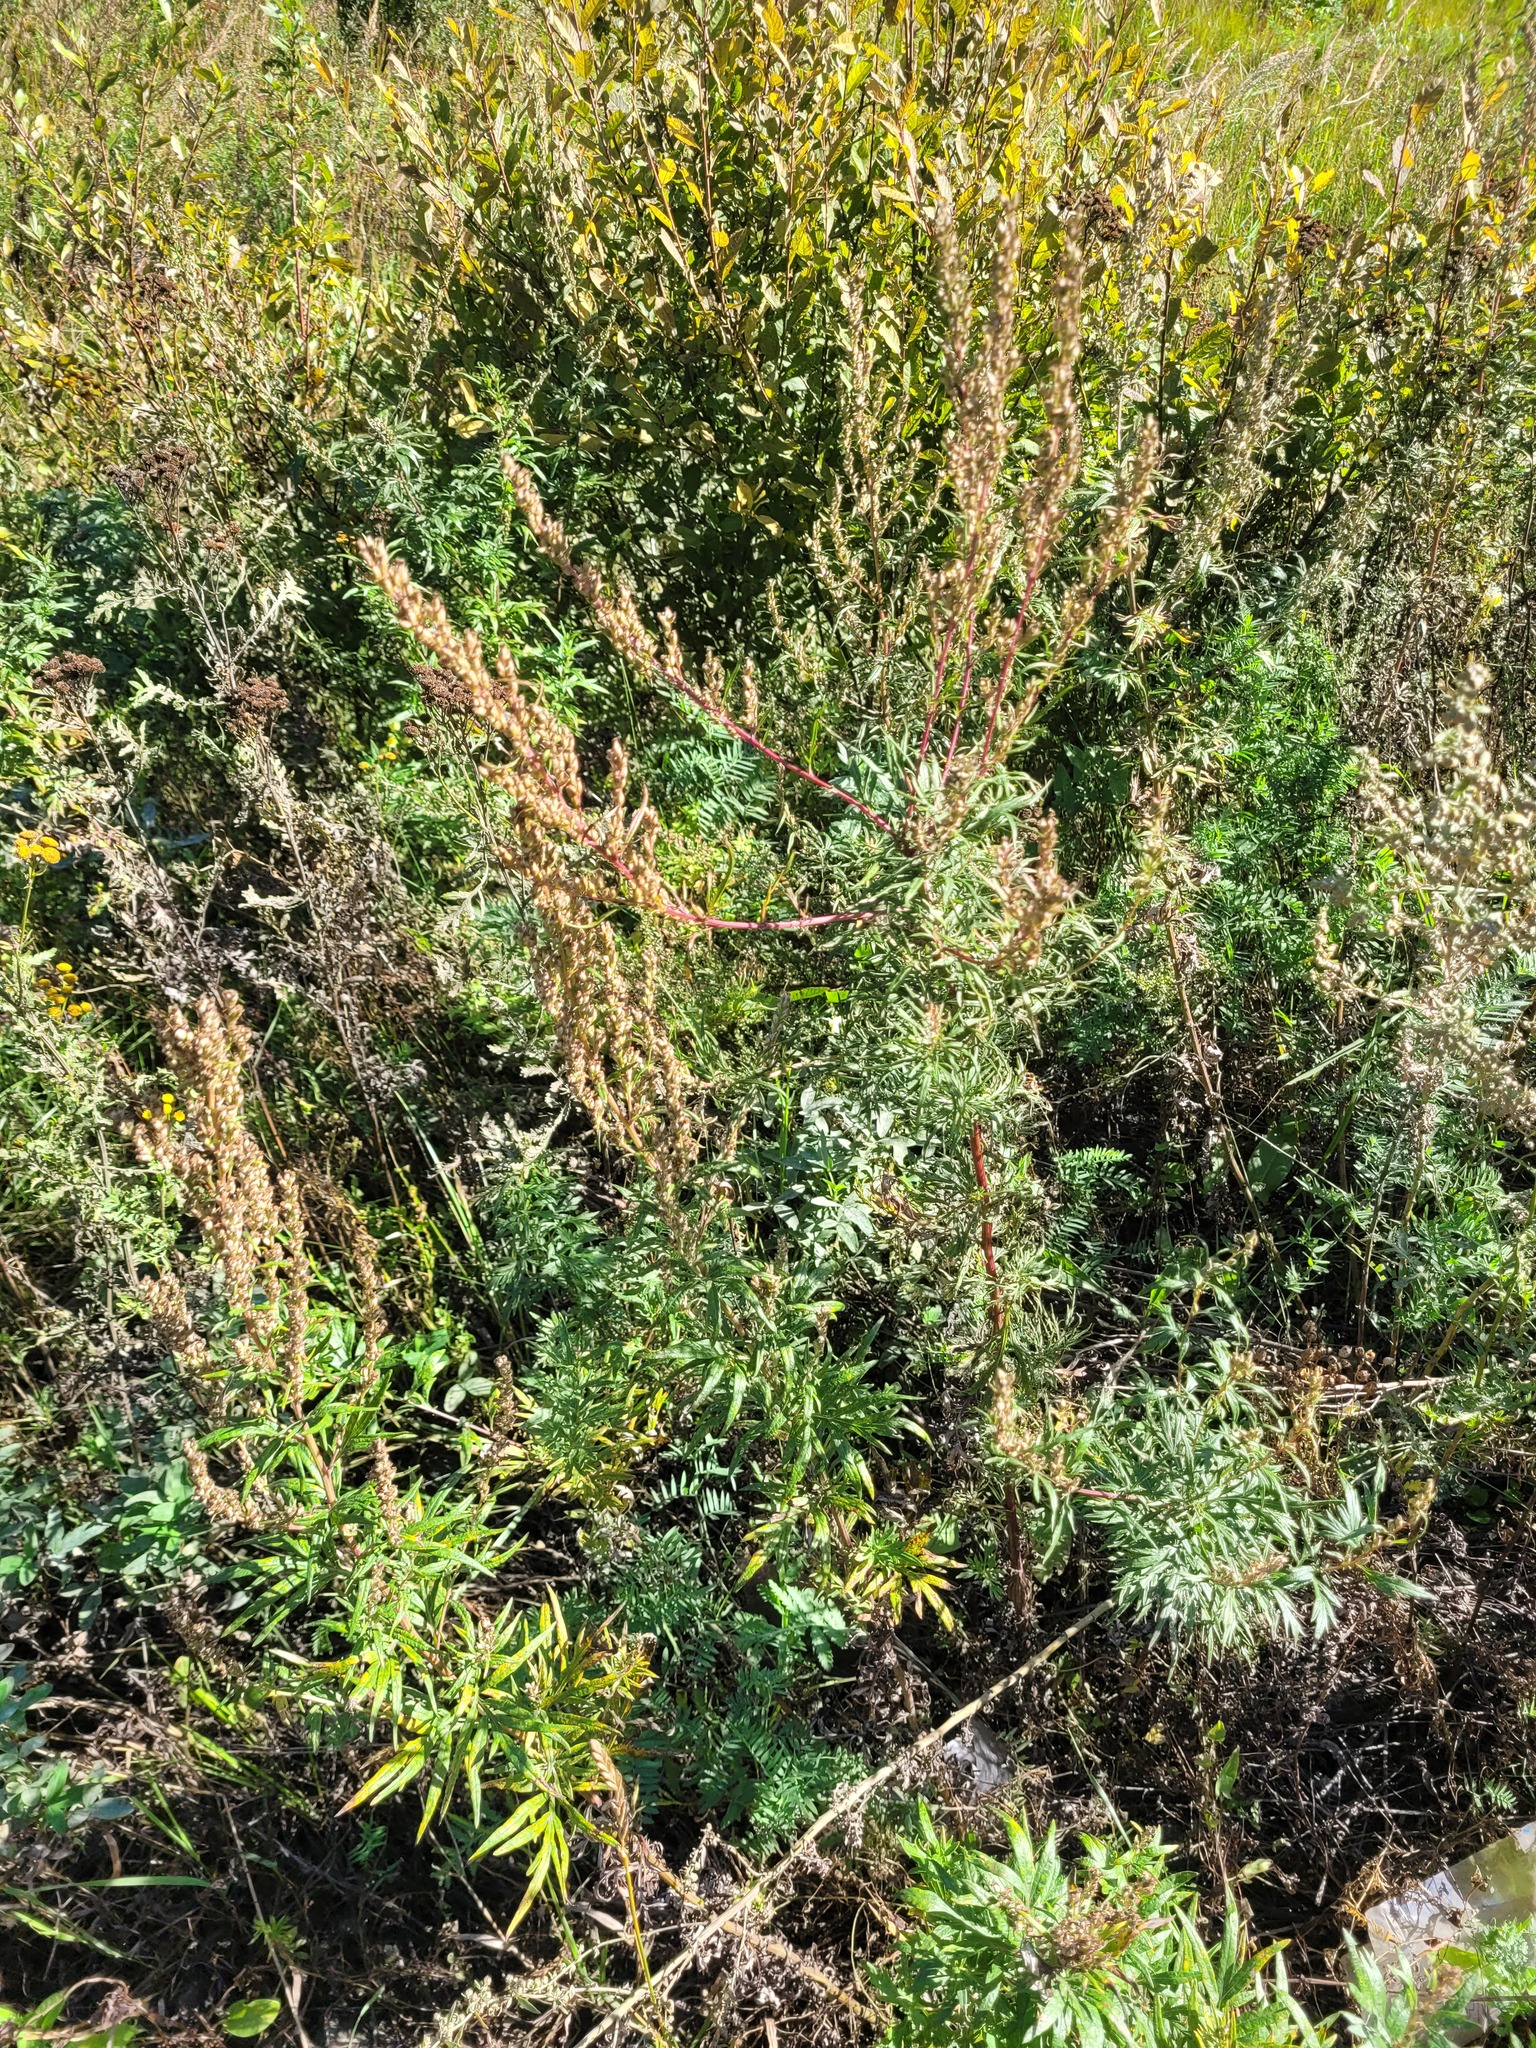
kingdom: Plantae
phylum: Tracheophyta
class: Magnoliopsida
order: Asterales
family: Asteraceae
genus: Artemisia
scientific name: Artemisia vulgaris
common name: Mugwort
